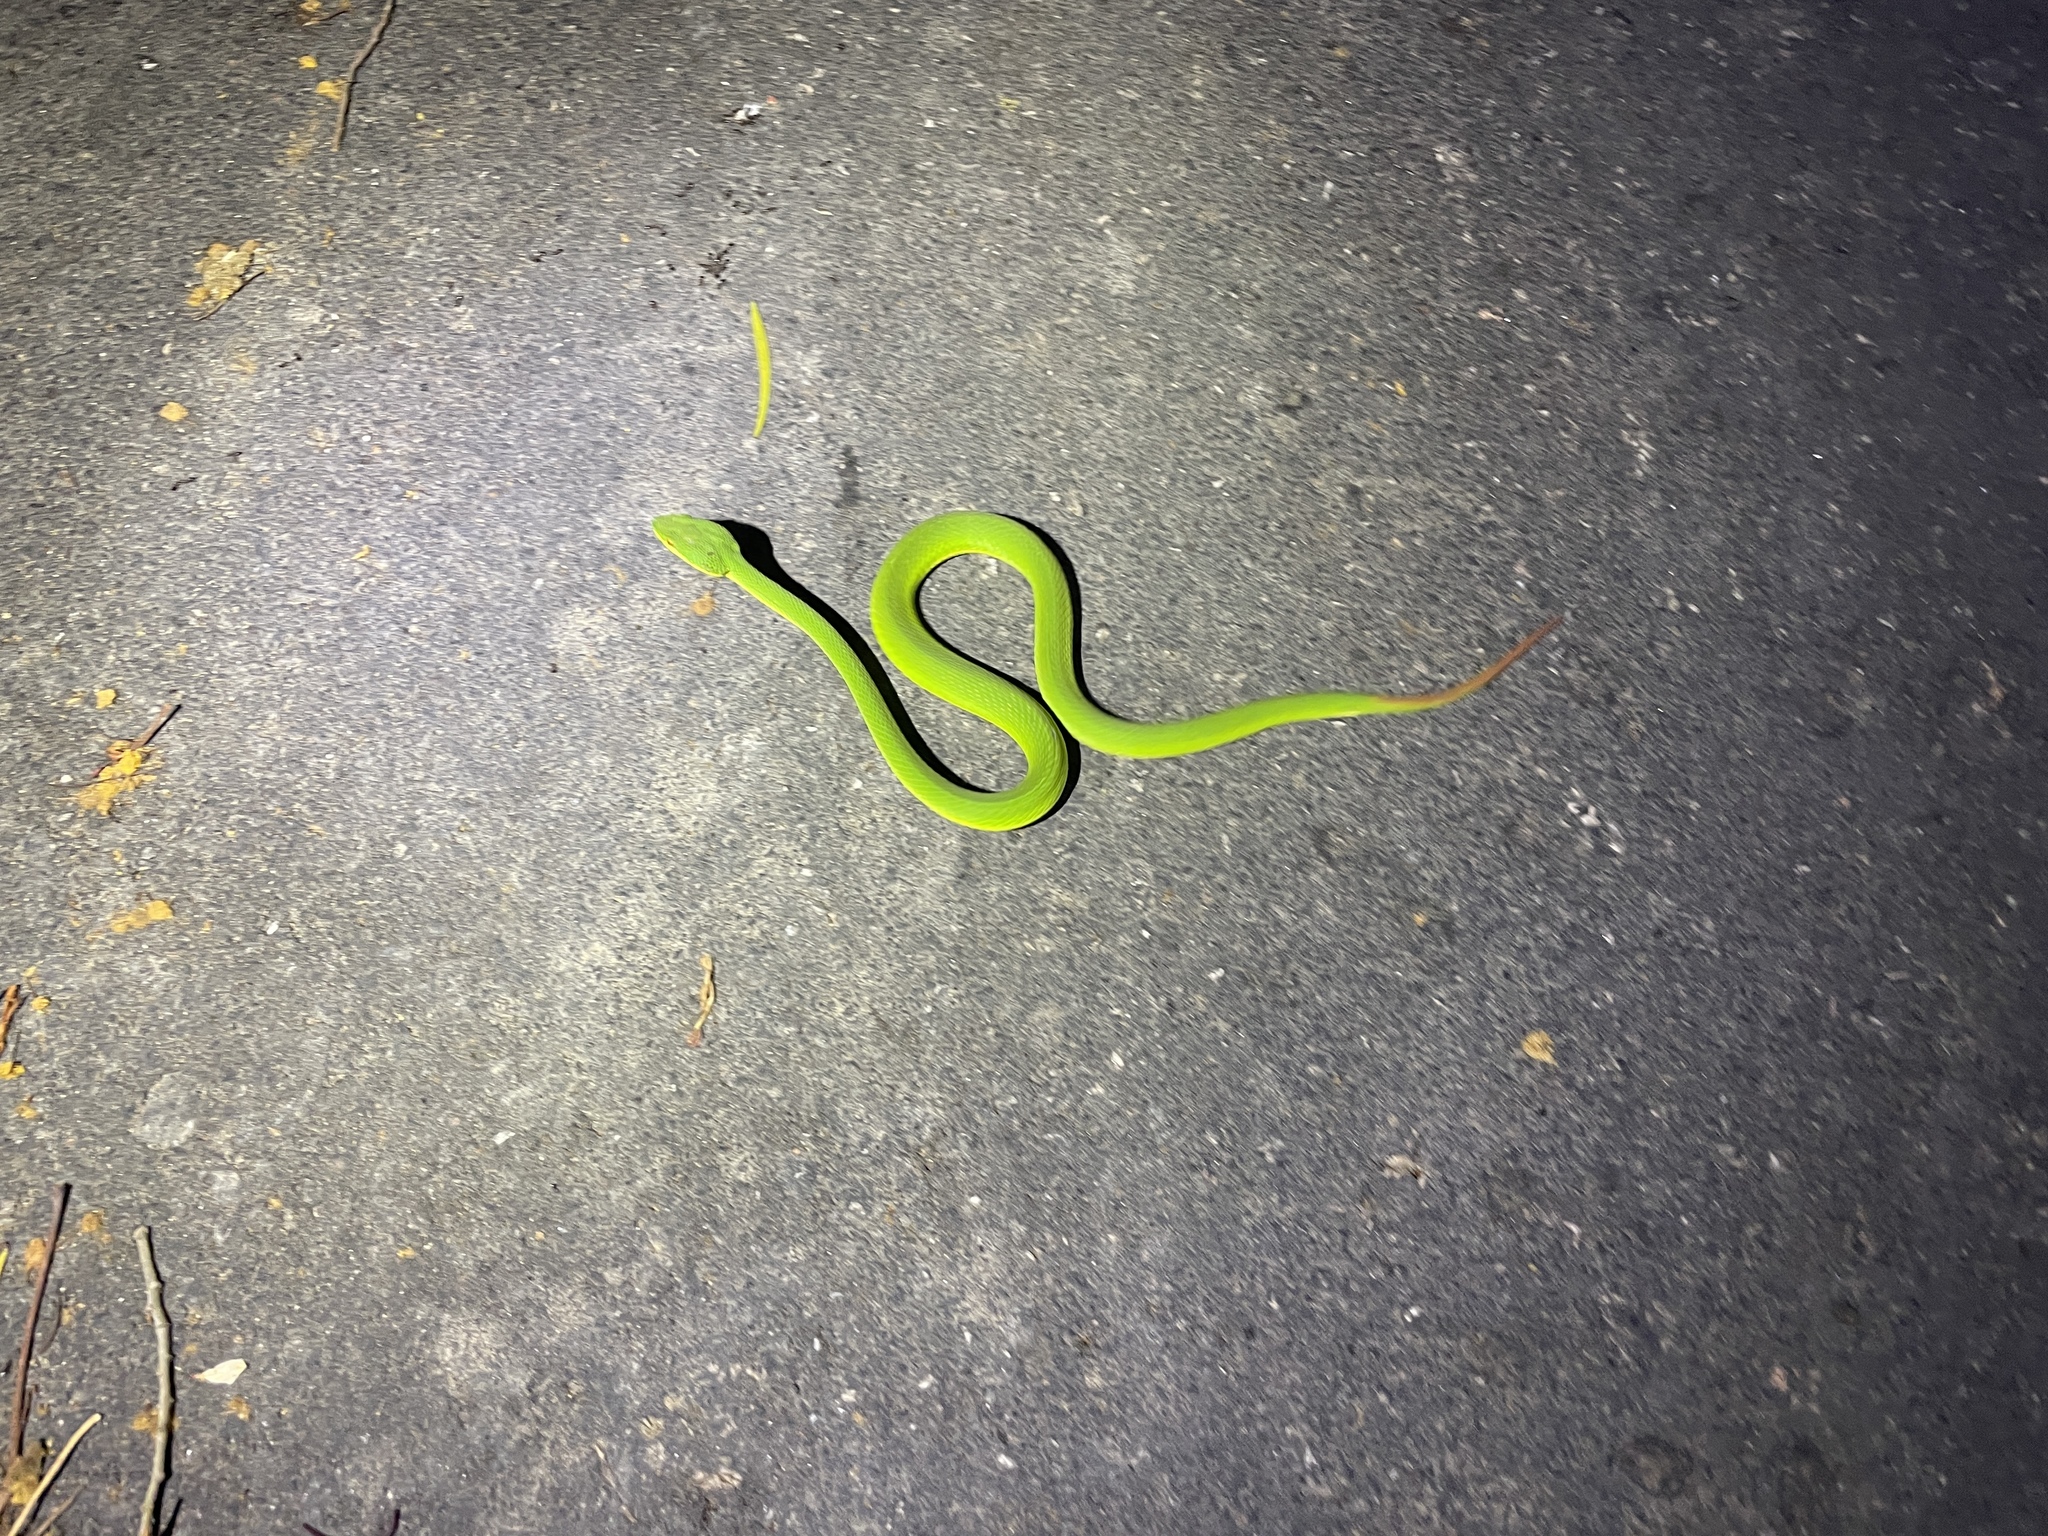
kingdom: Animalia
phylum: Chordata
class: Squamata
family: Viperidae
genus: Trimeresurus
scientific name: Trimeresurus albolabris
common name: White-lipped pitviper
